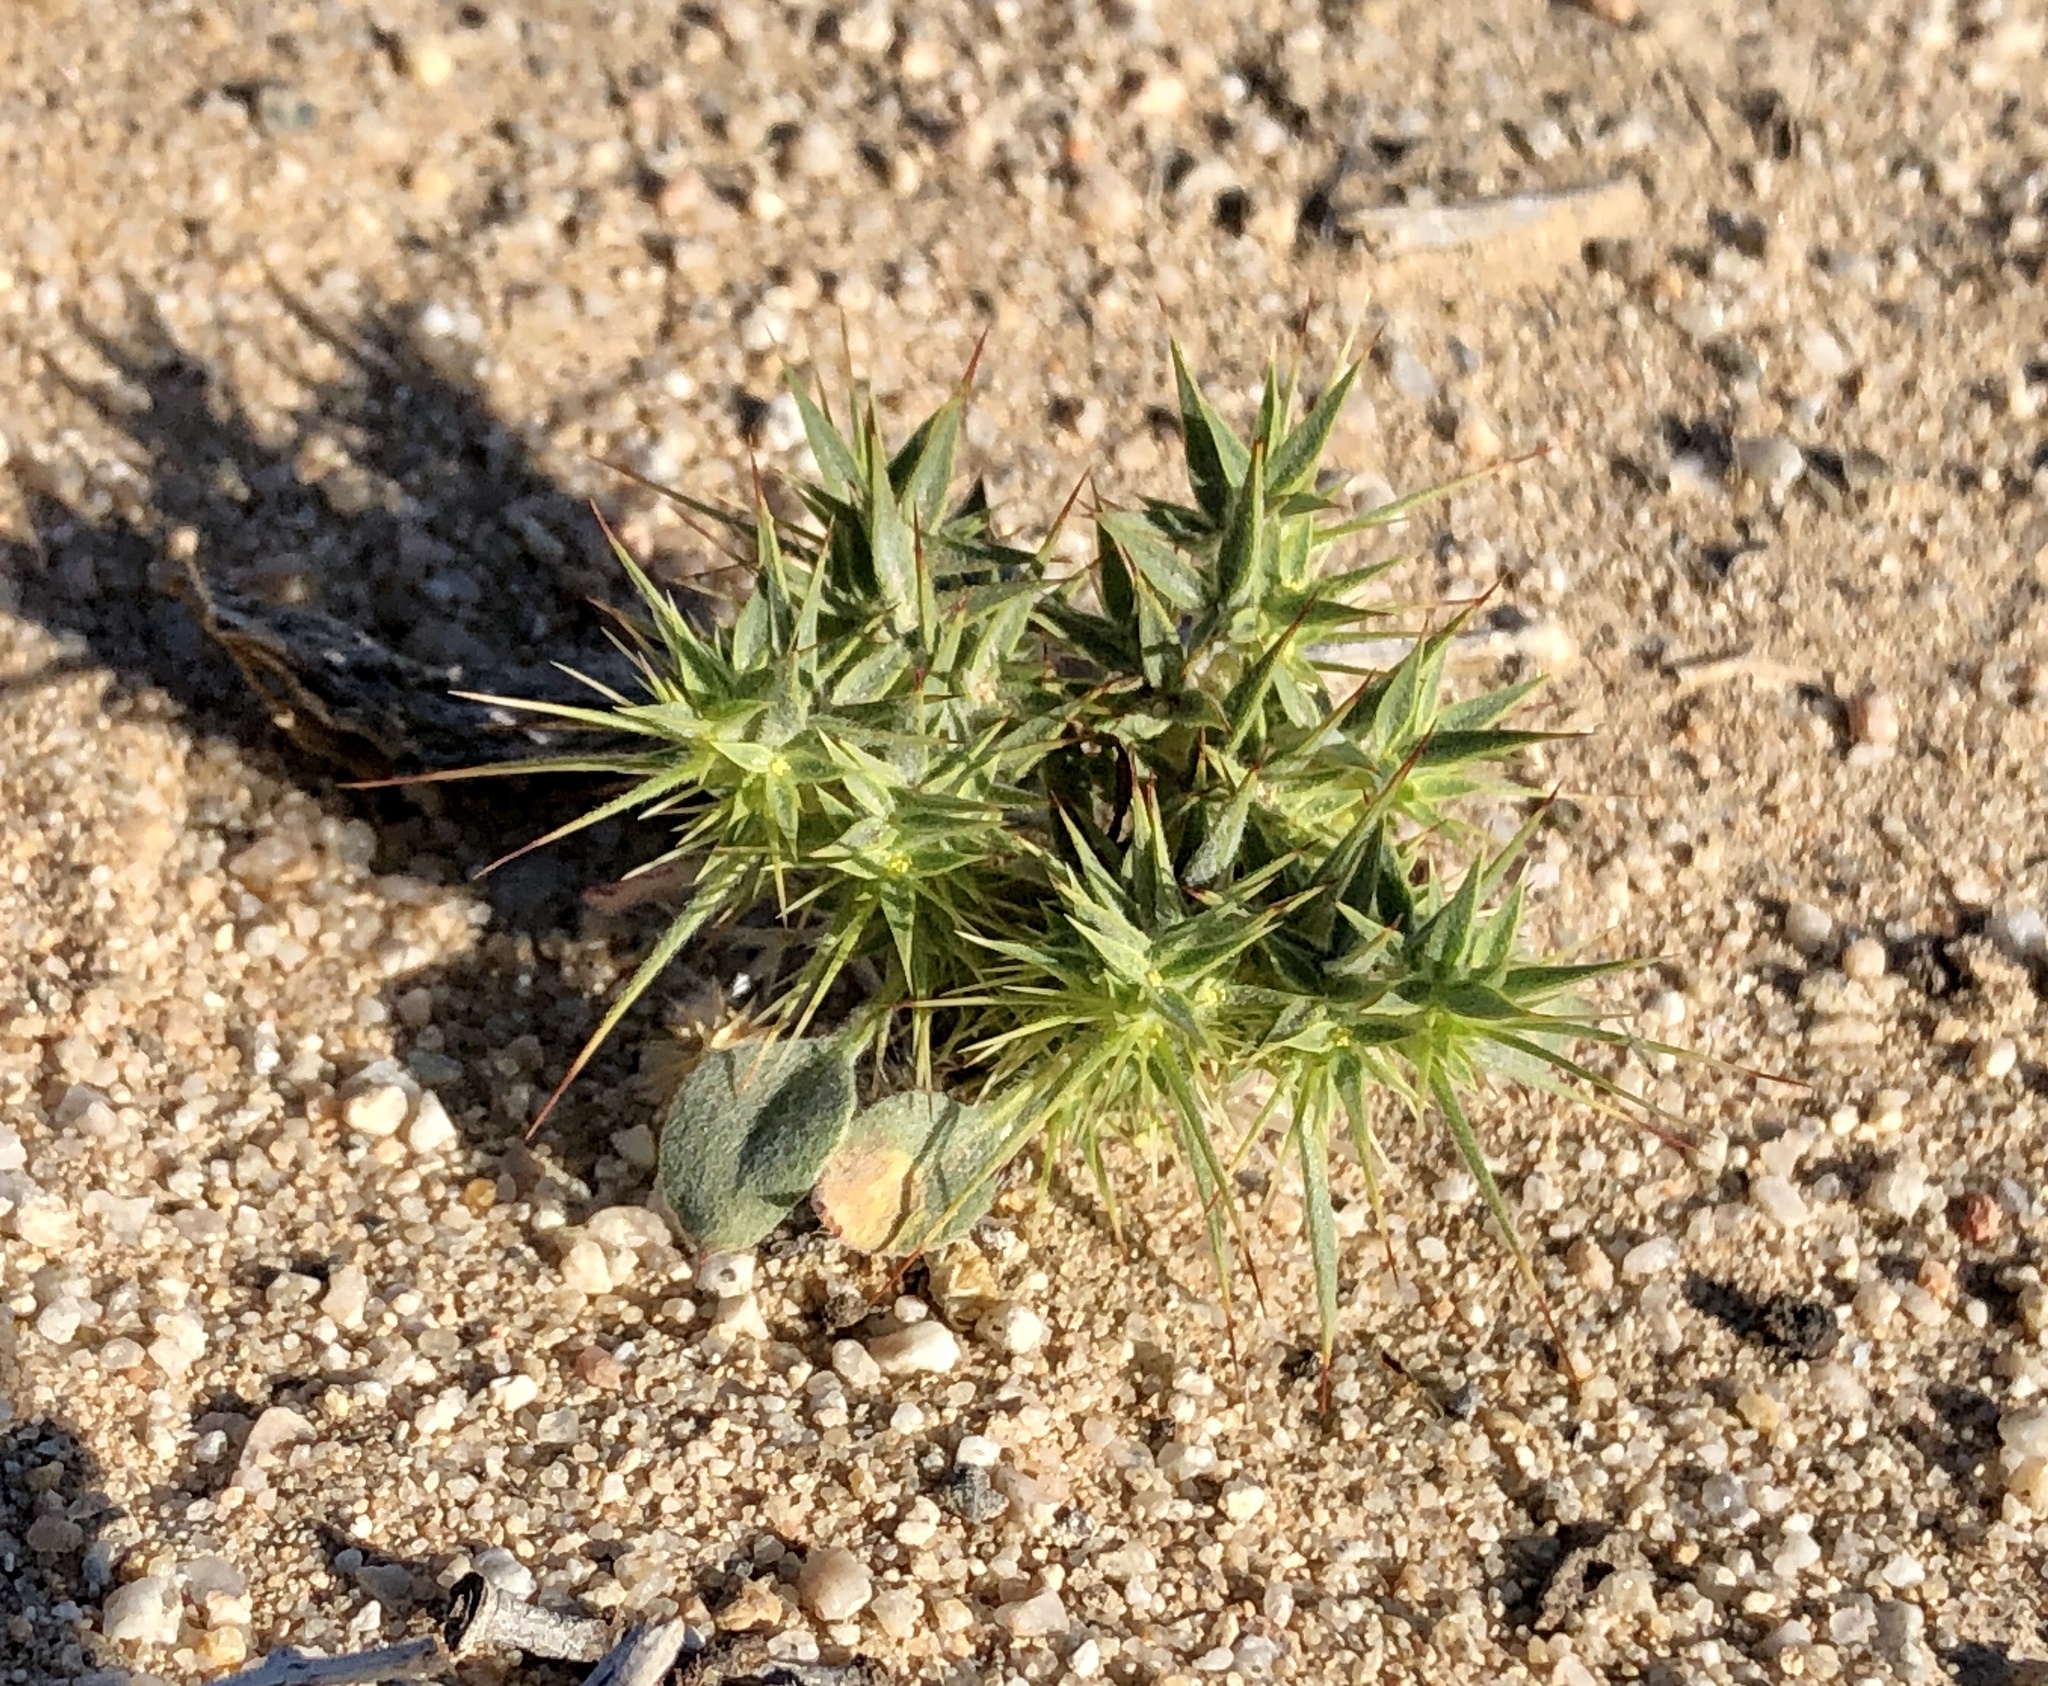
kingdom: Plantae
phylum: Tracheophyta
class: Magnoliopsida
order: Caryophyllales
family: Polygonaceae
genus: Chorizanthe
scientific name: Chorizanthe rigida
